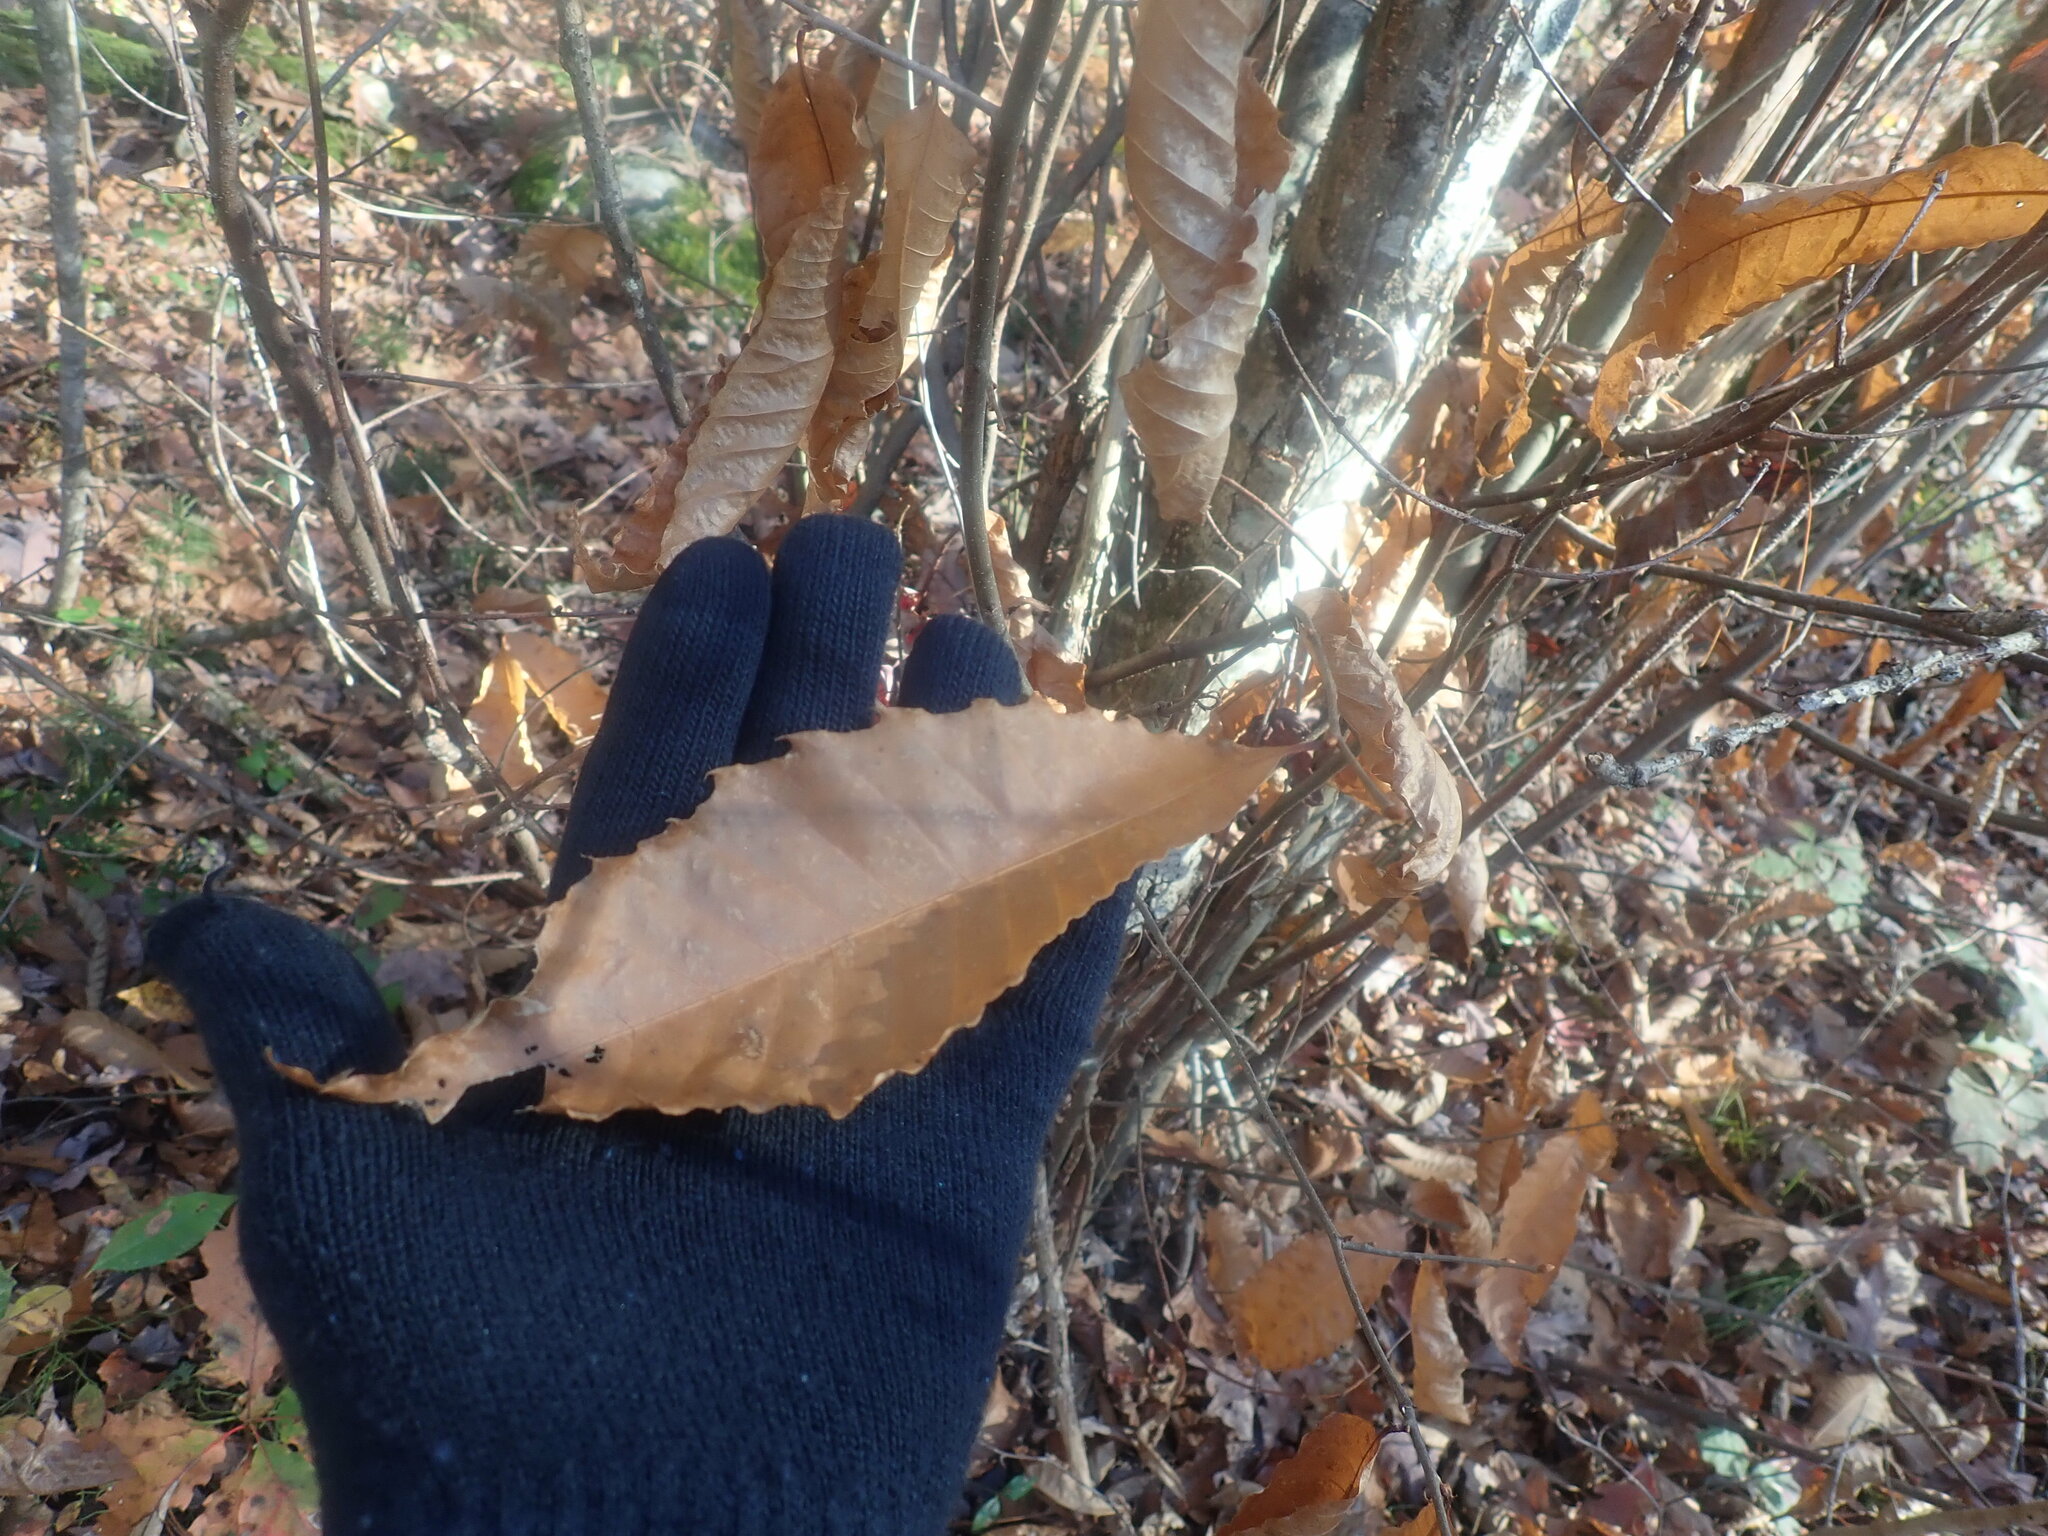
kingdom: Plantae
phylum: Tracheophyta
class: Magnoliopsida
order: Fagales
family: Fagaceae
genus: Castanea
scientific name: Castanea dentata
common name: American chestnut
